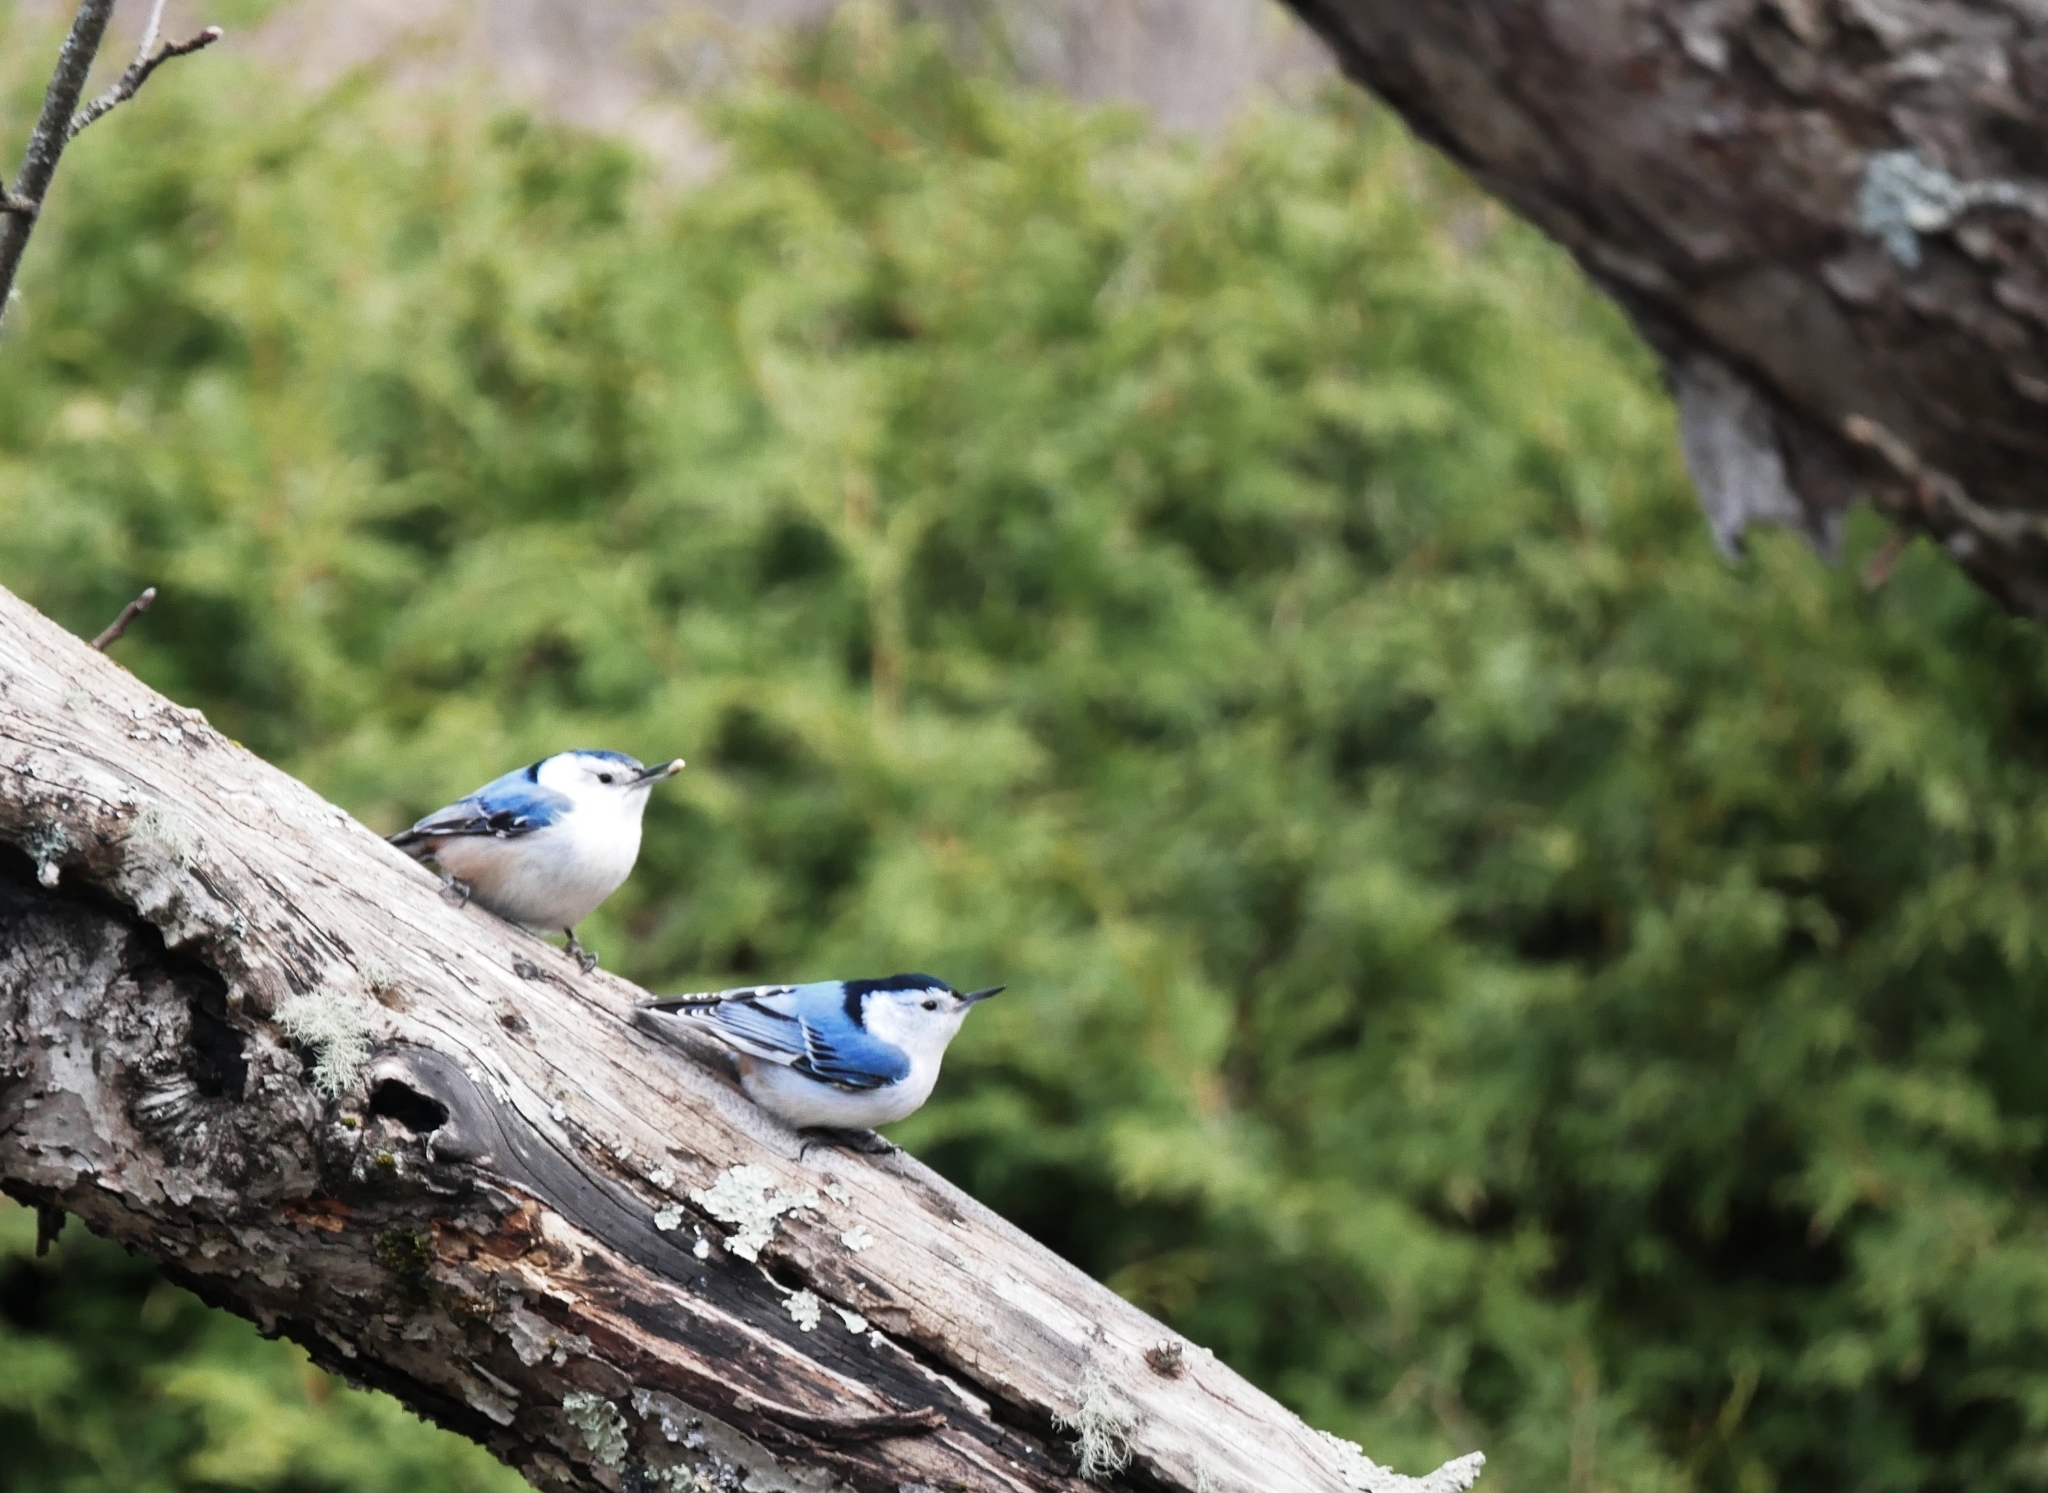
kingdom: Animalia
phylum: Chordata
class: Aves
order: Passeriformes
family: Sittidae
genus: Sitta
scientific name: Sitta carolinensis
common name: White-breasted nuthatch
